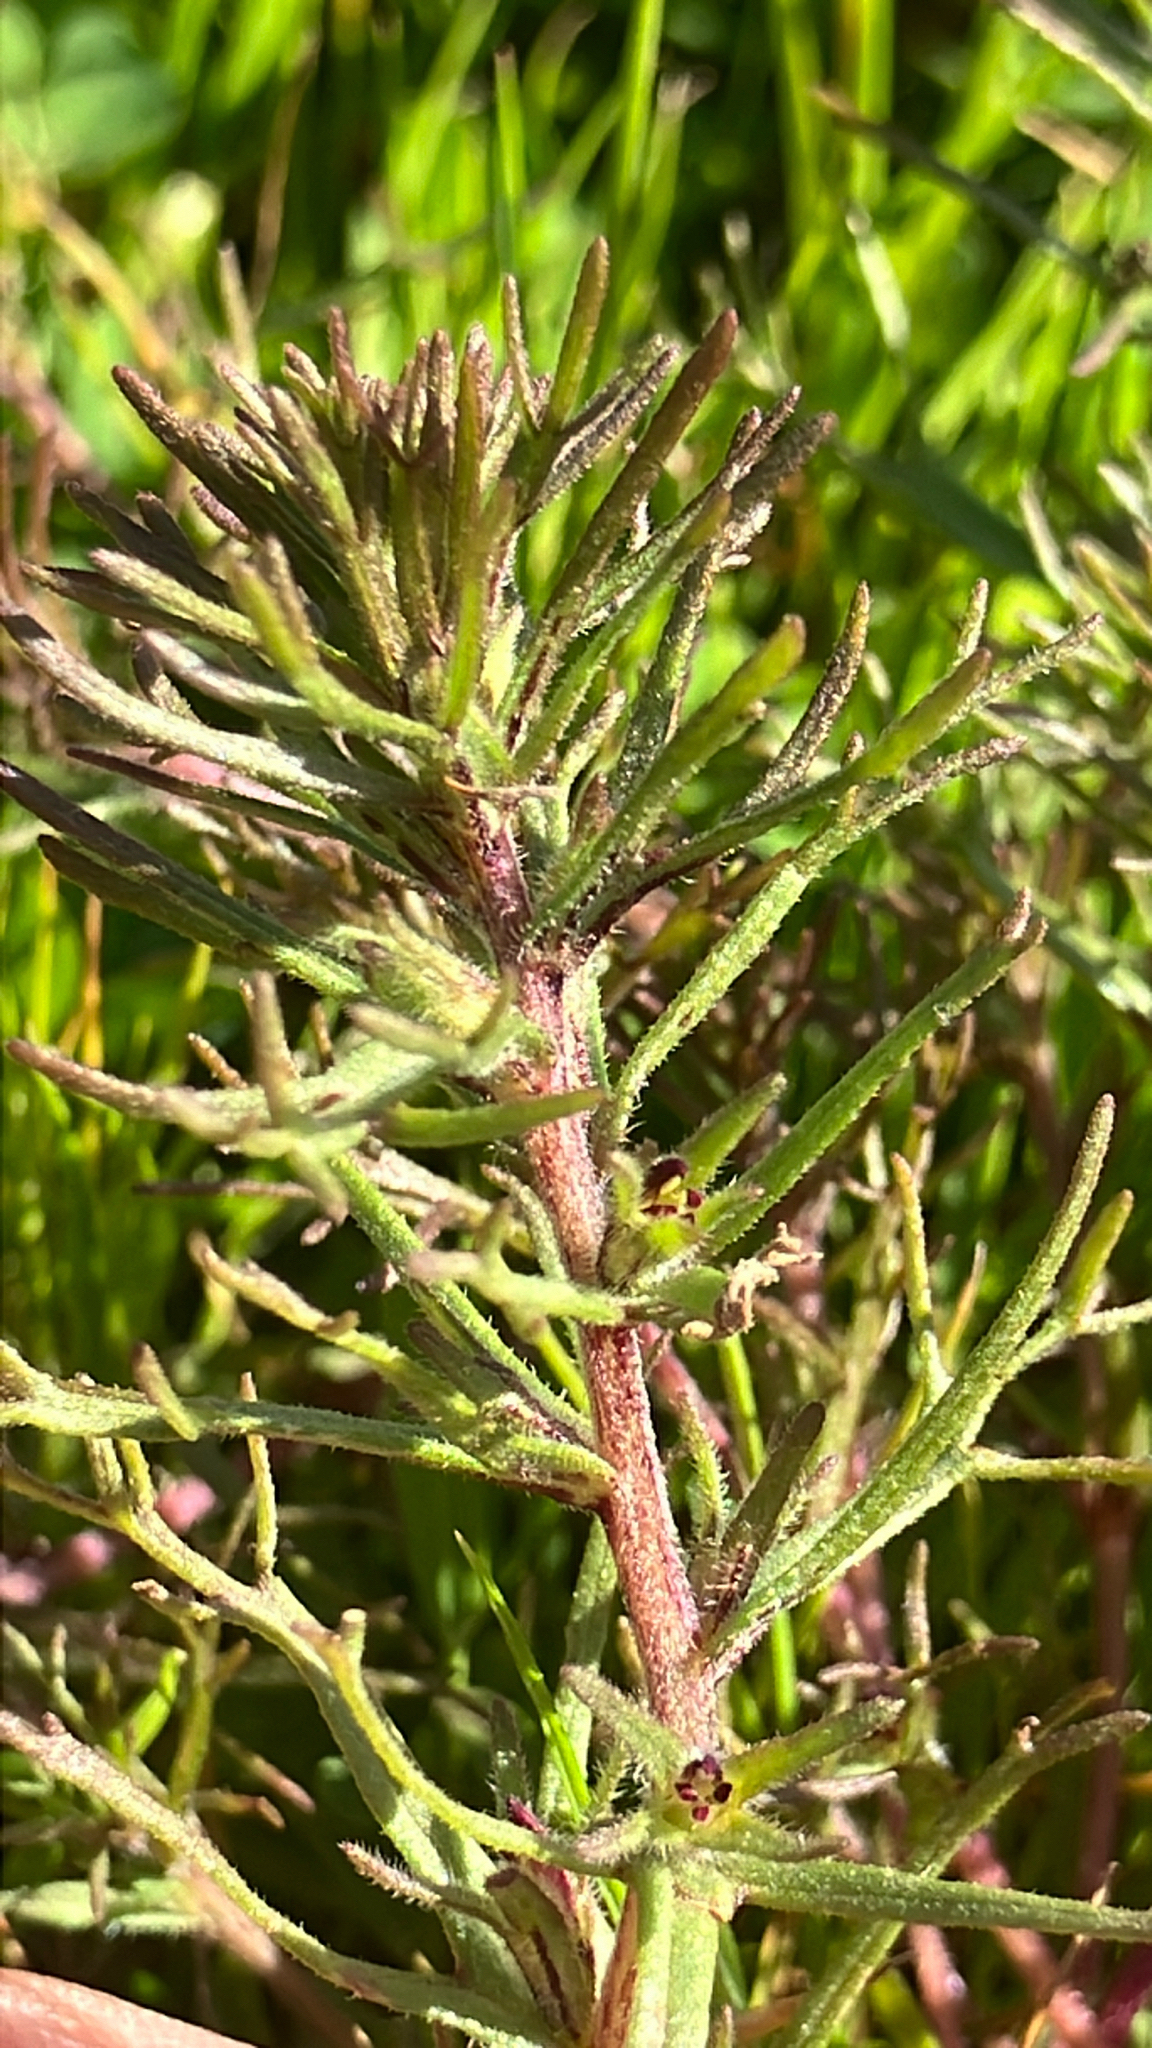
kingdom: Plantae
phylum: Tracheophyta
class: Magnoliopsida
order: Lamiales
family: Orobanchaceae
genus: Triphysaria
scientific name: Triphysaria pusilla
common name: Dwarf false owl-clover
